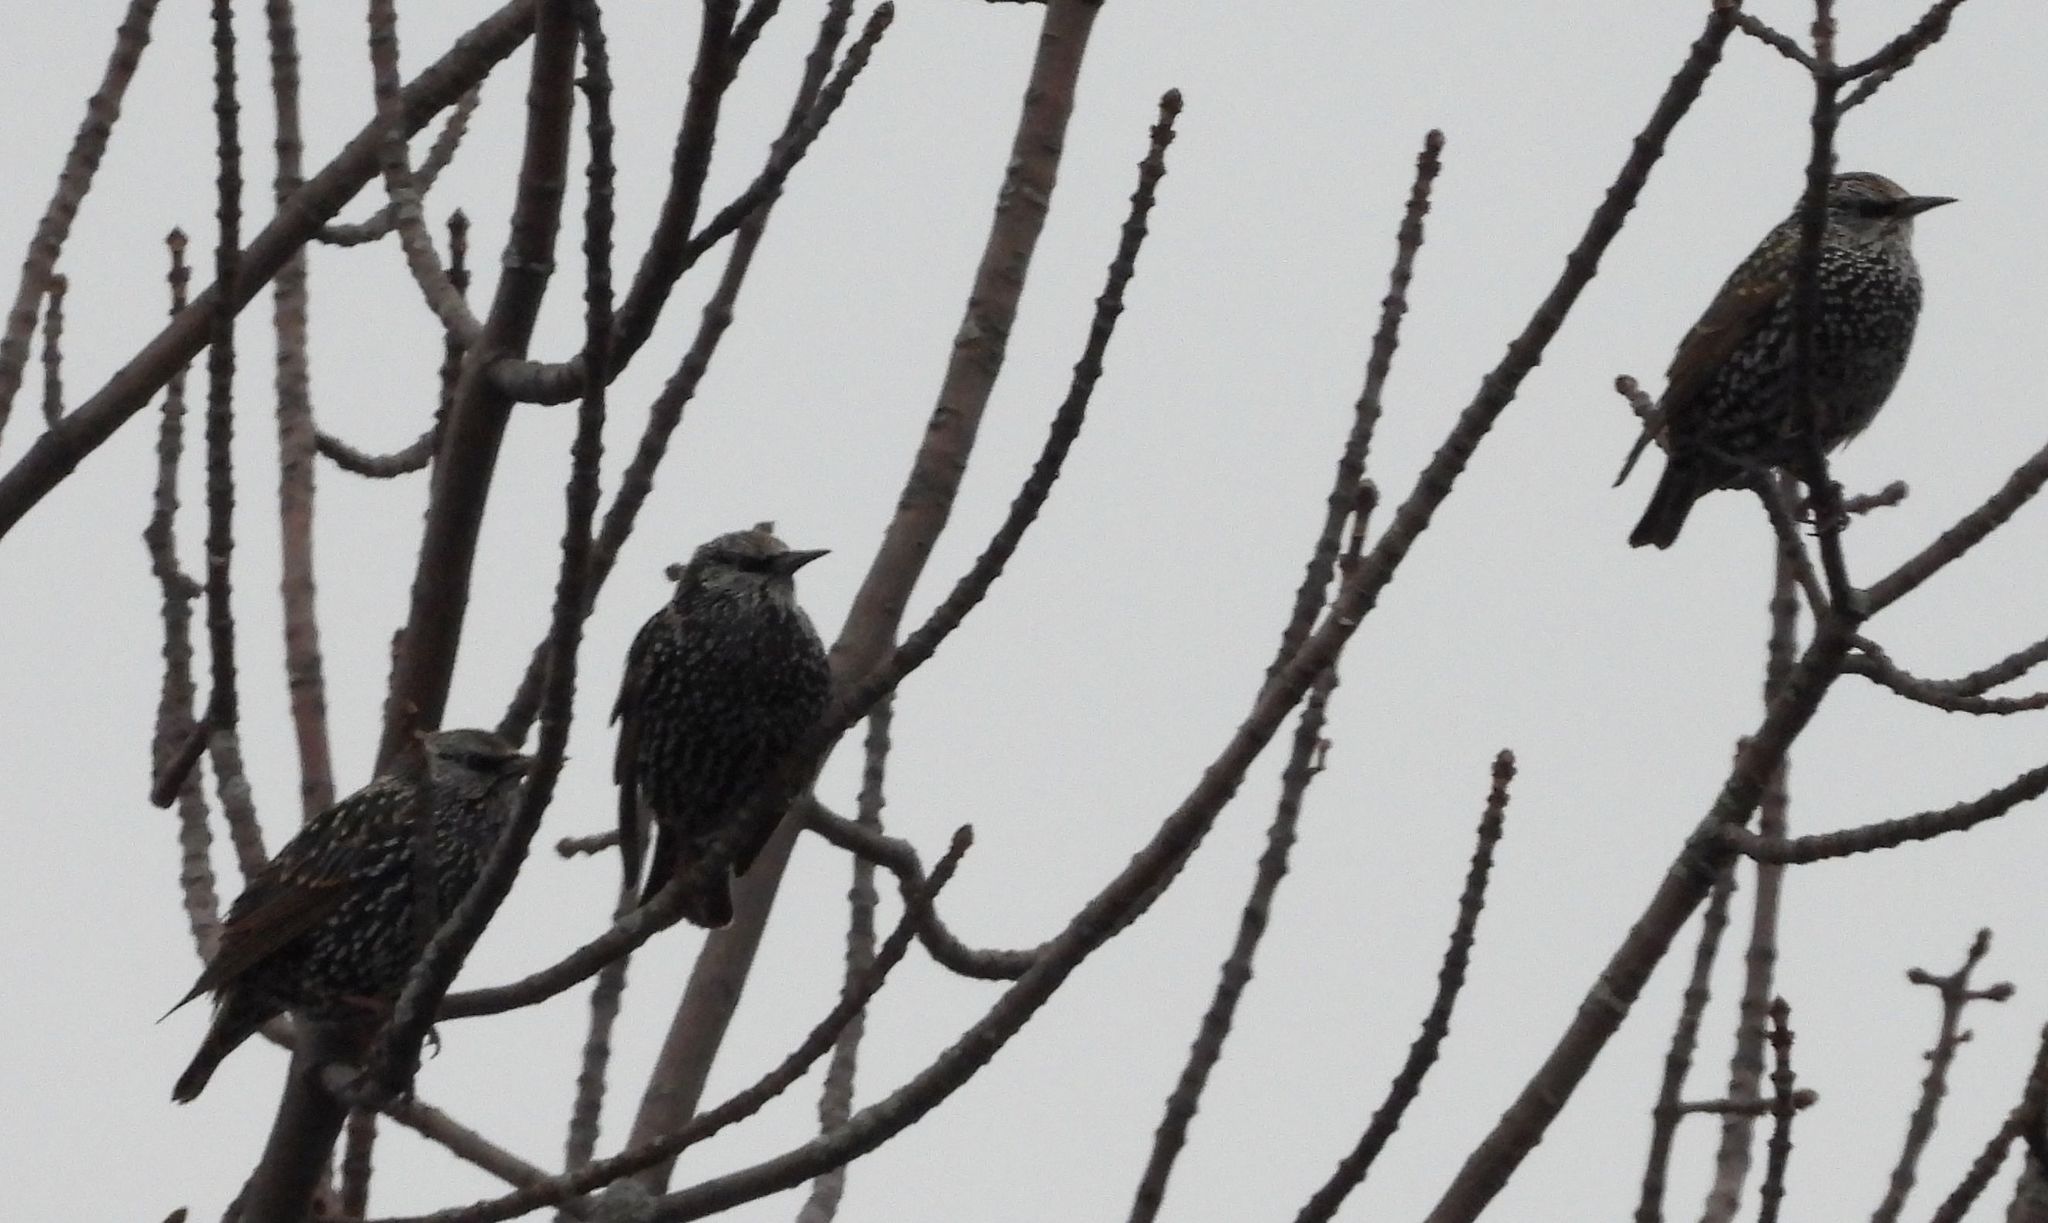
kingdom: Animalia
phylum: Chordata
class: Aves
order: Passeriformes
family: Sturnidae
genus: Sturnus
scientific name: Sturnus vulgaris
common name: Common starling
